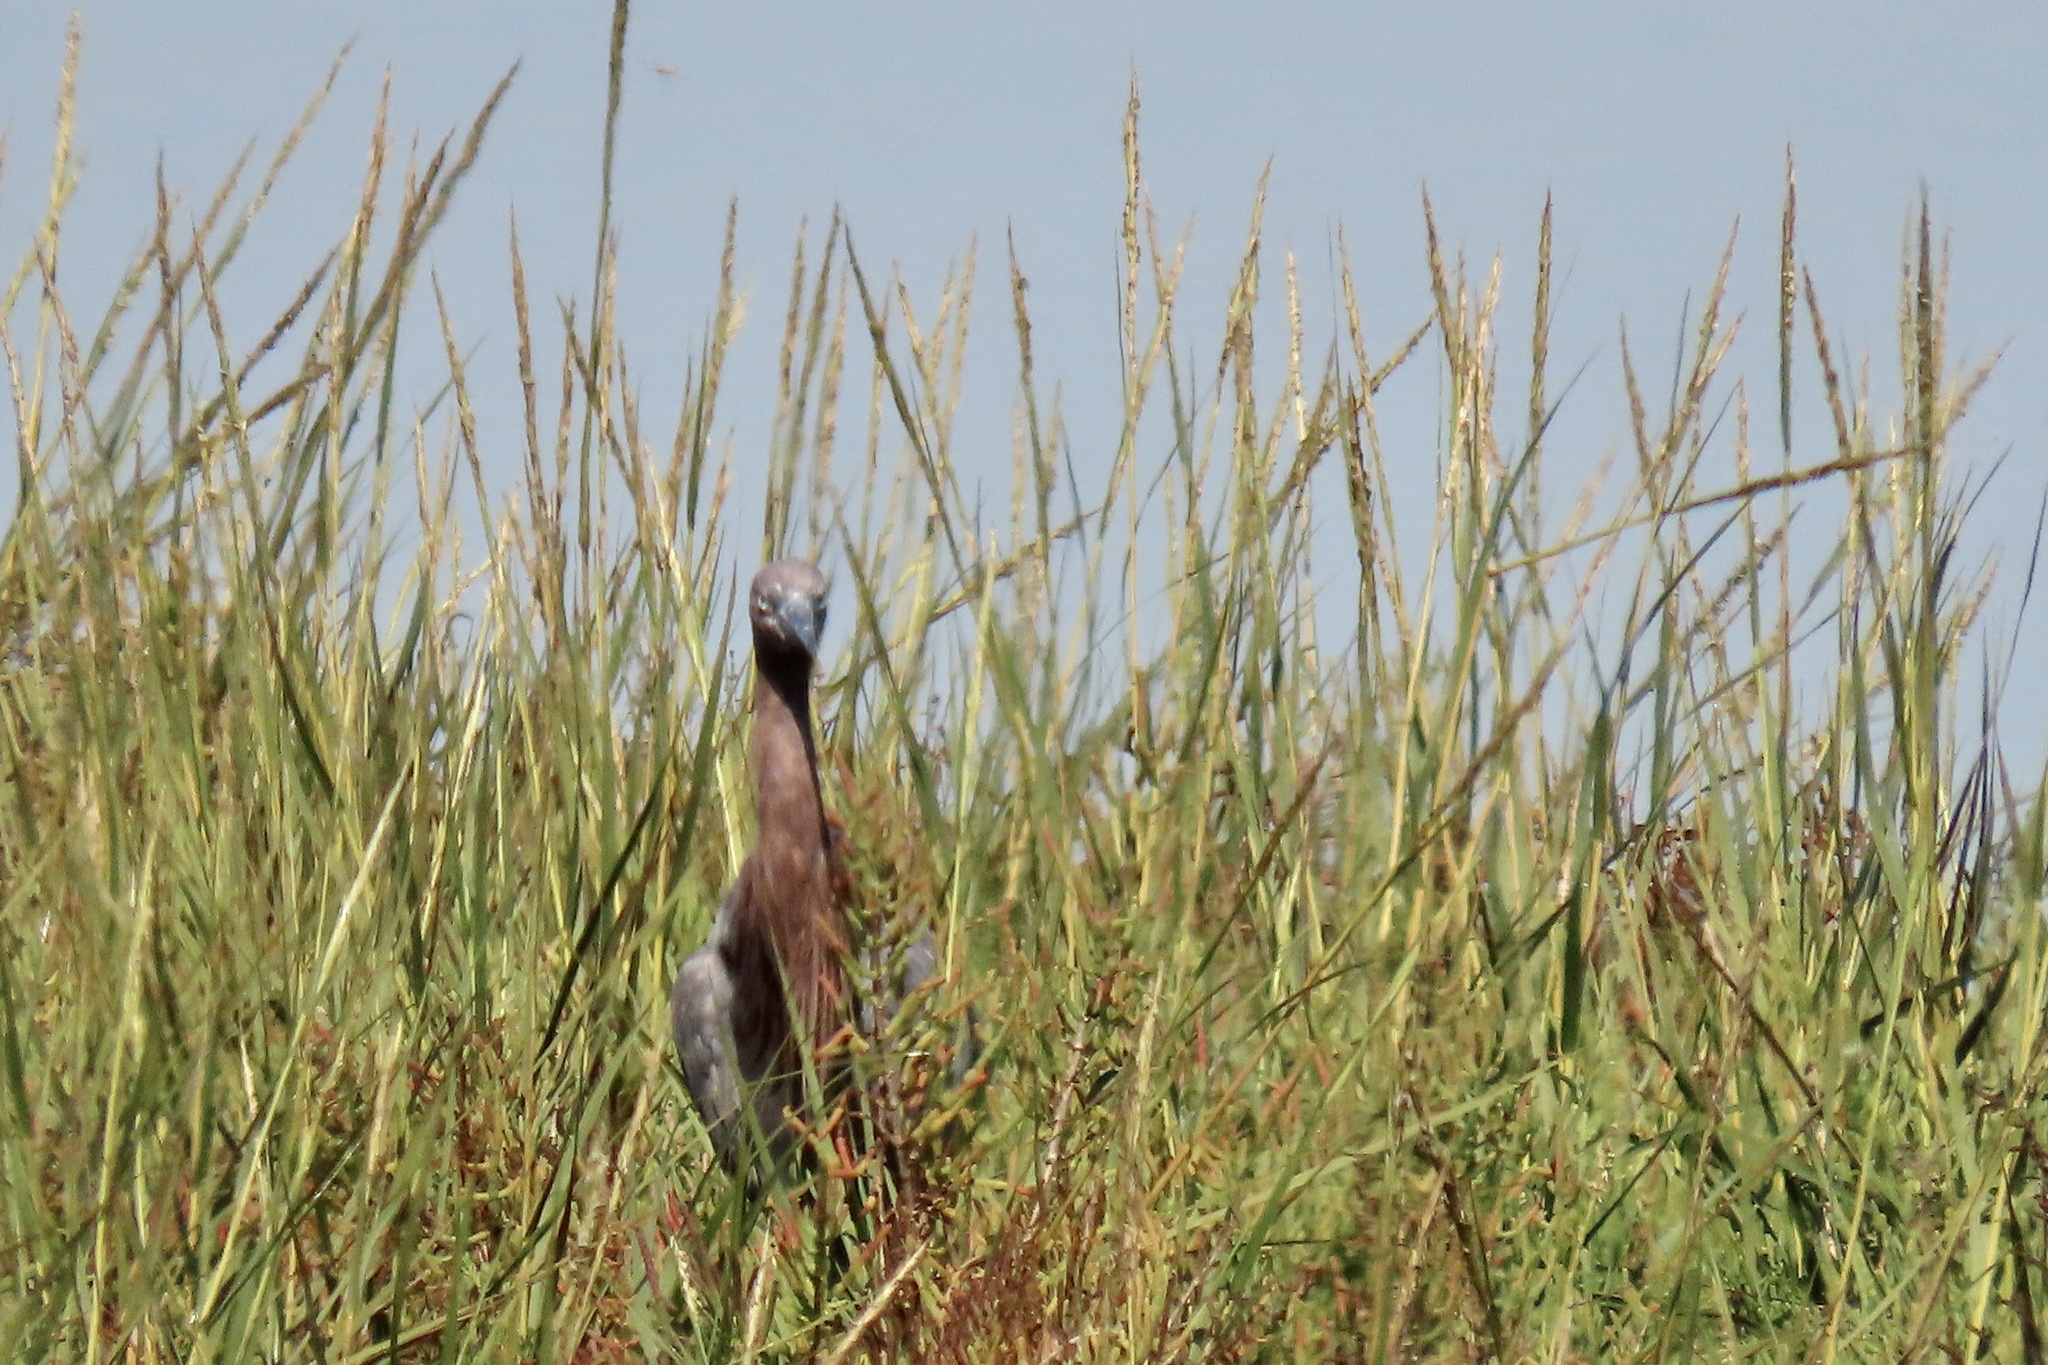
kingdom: Animalia
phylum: Chordata
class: Aves
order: Pelecaniformes
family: Ardeidae
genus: Egretta
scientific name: Egretta rufescens
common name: Reddish egret
